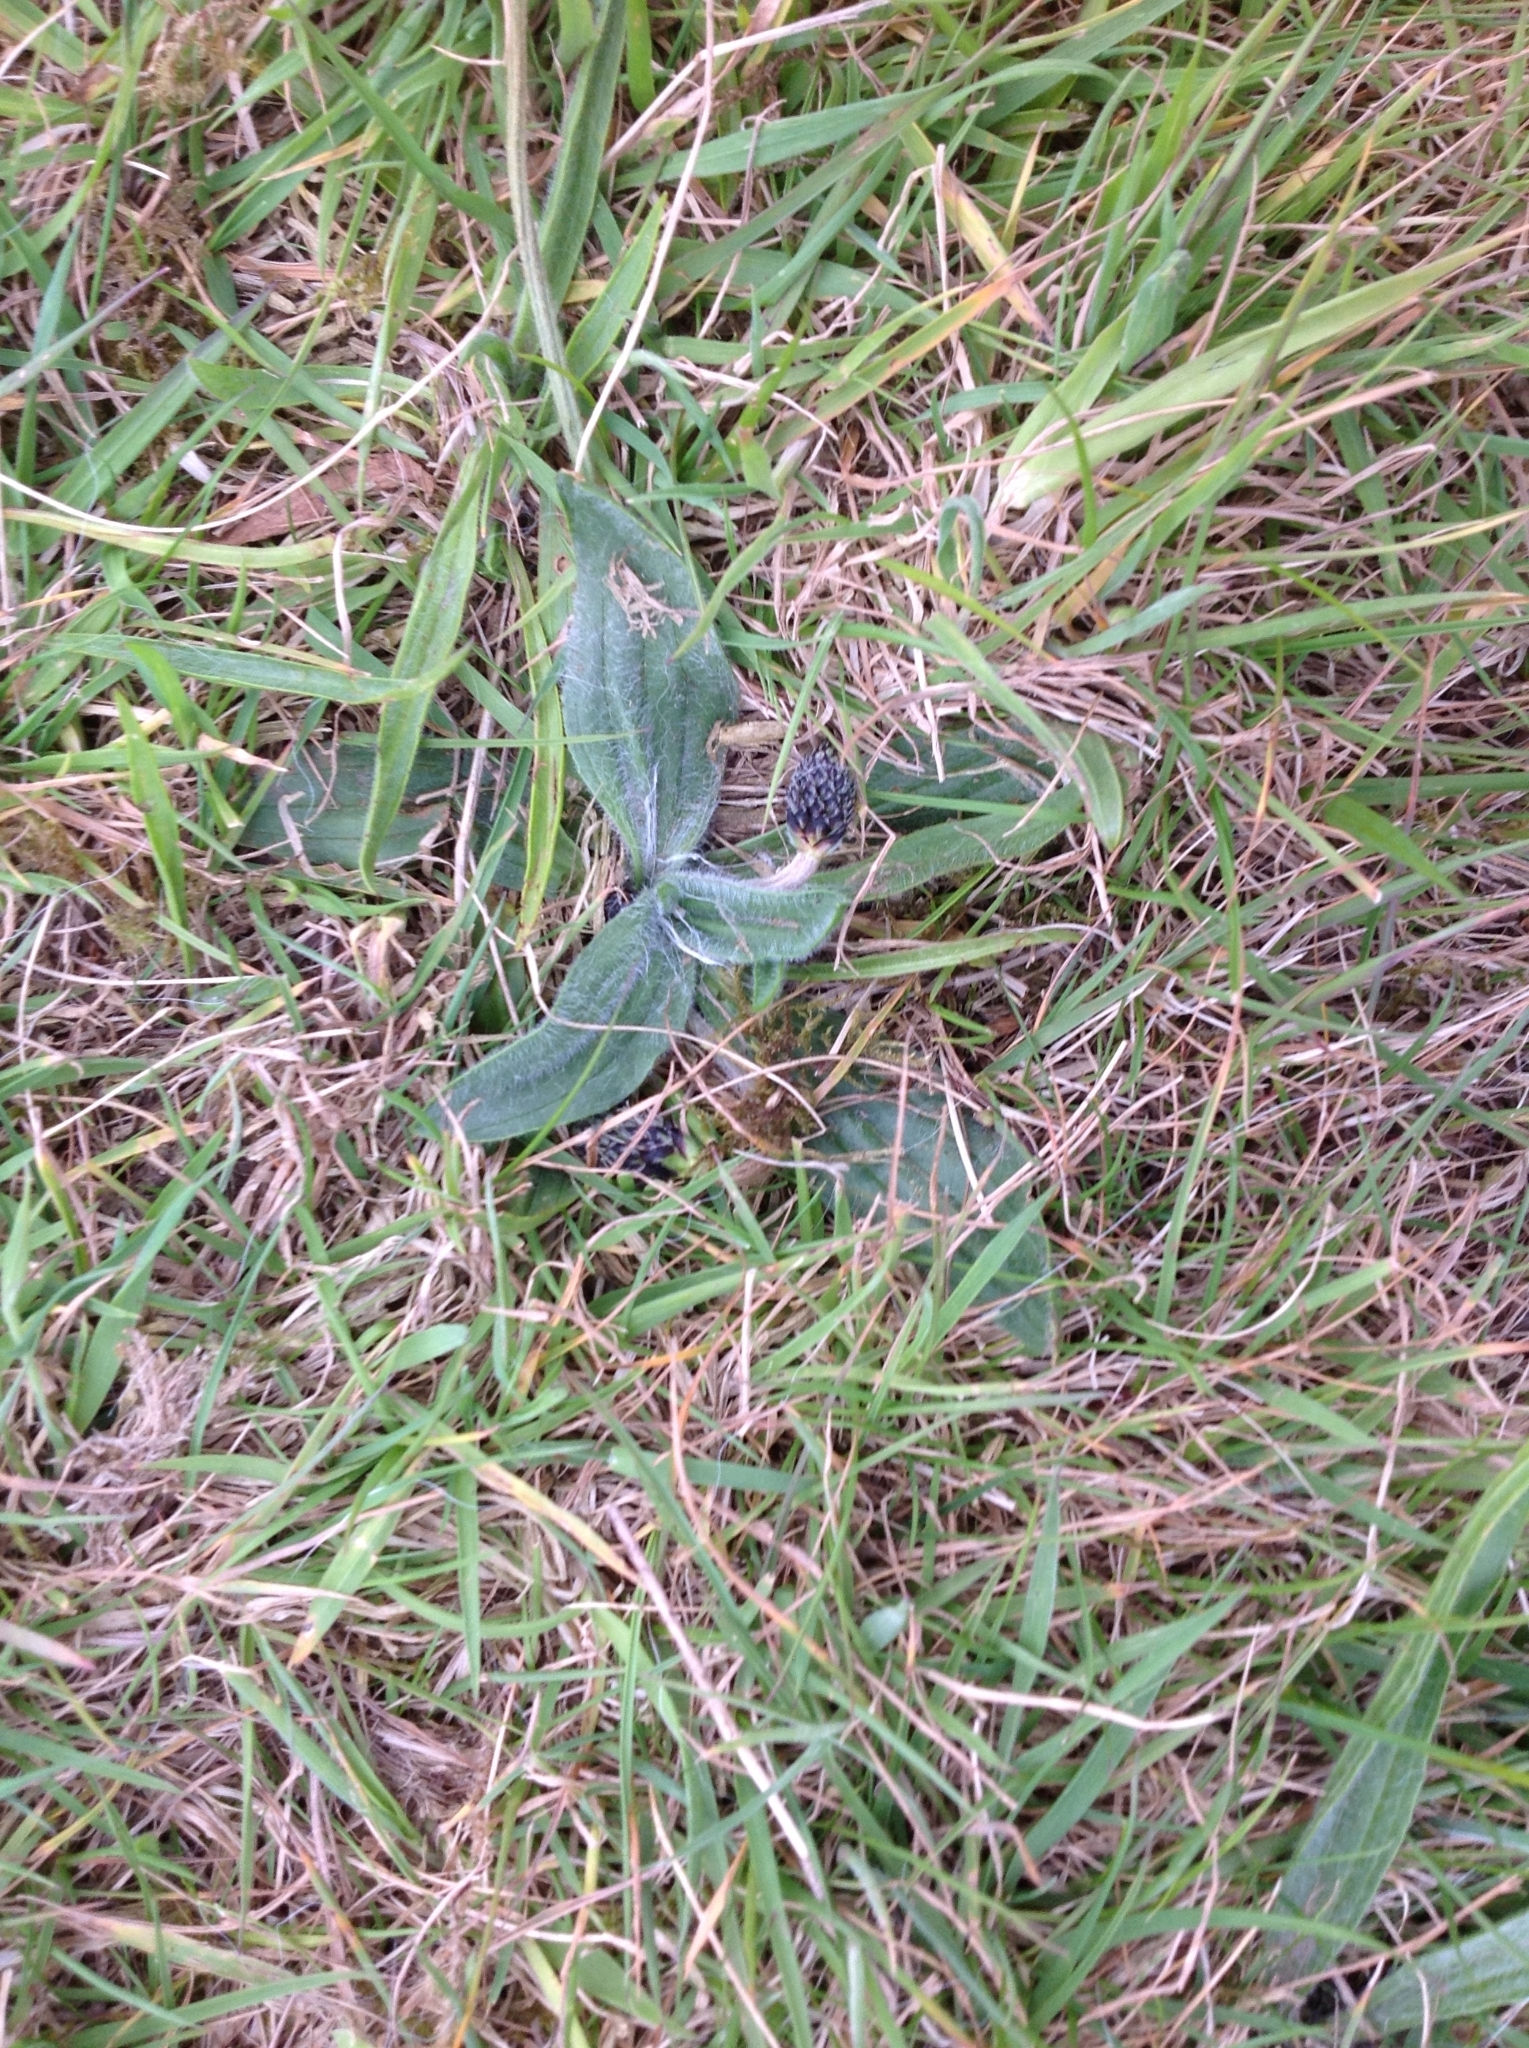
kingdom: Plantae
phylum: Tracheophyta
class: Magnoliopsida
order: Lamiales
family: Plantaginaceae
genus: Plantago
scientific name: Plantago lanceolata
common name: Ribwort plantain
